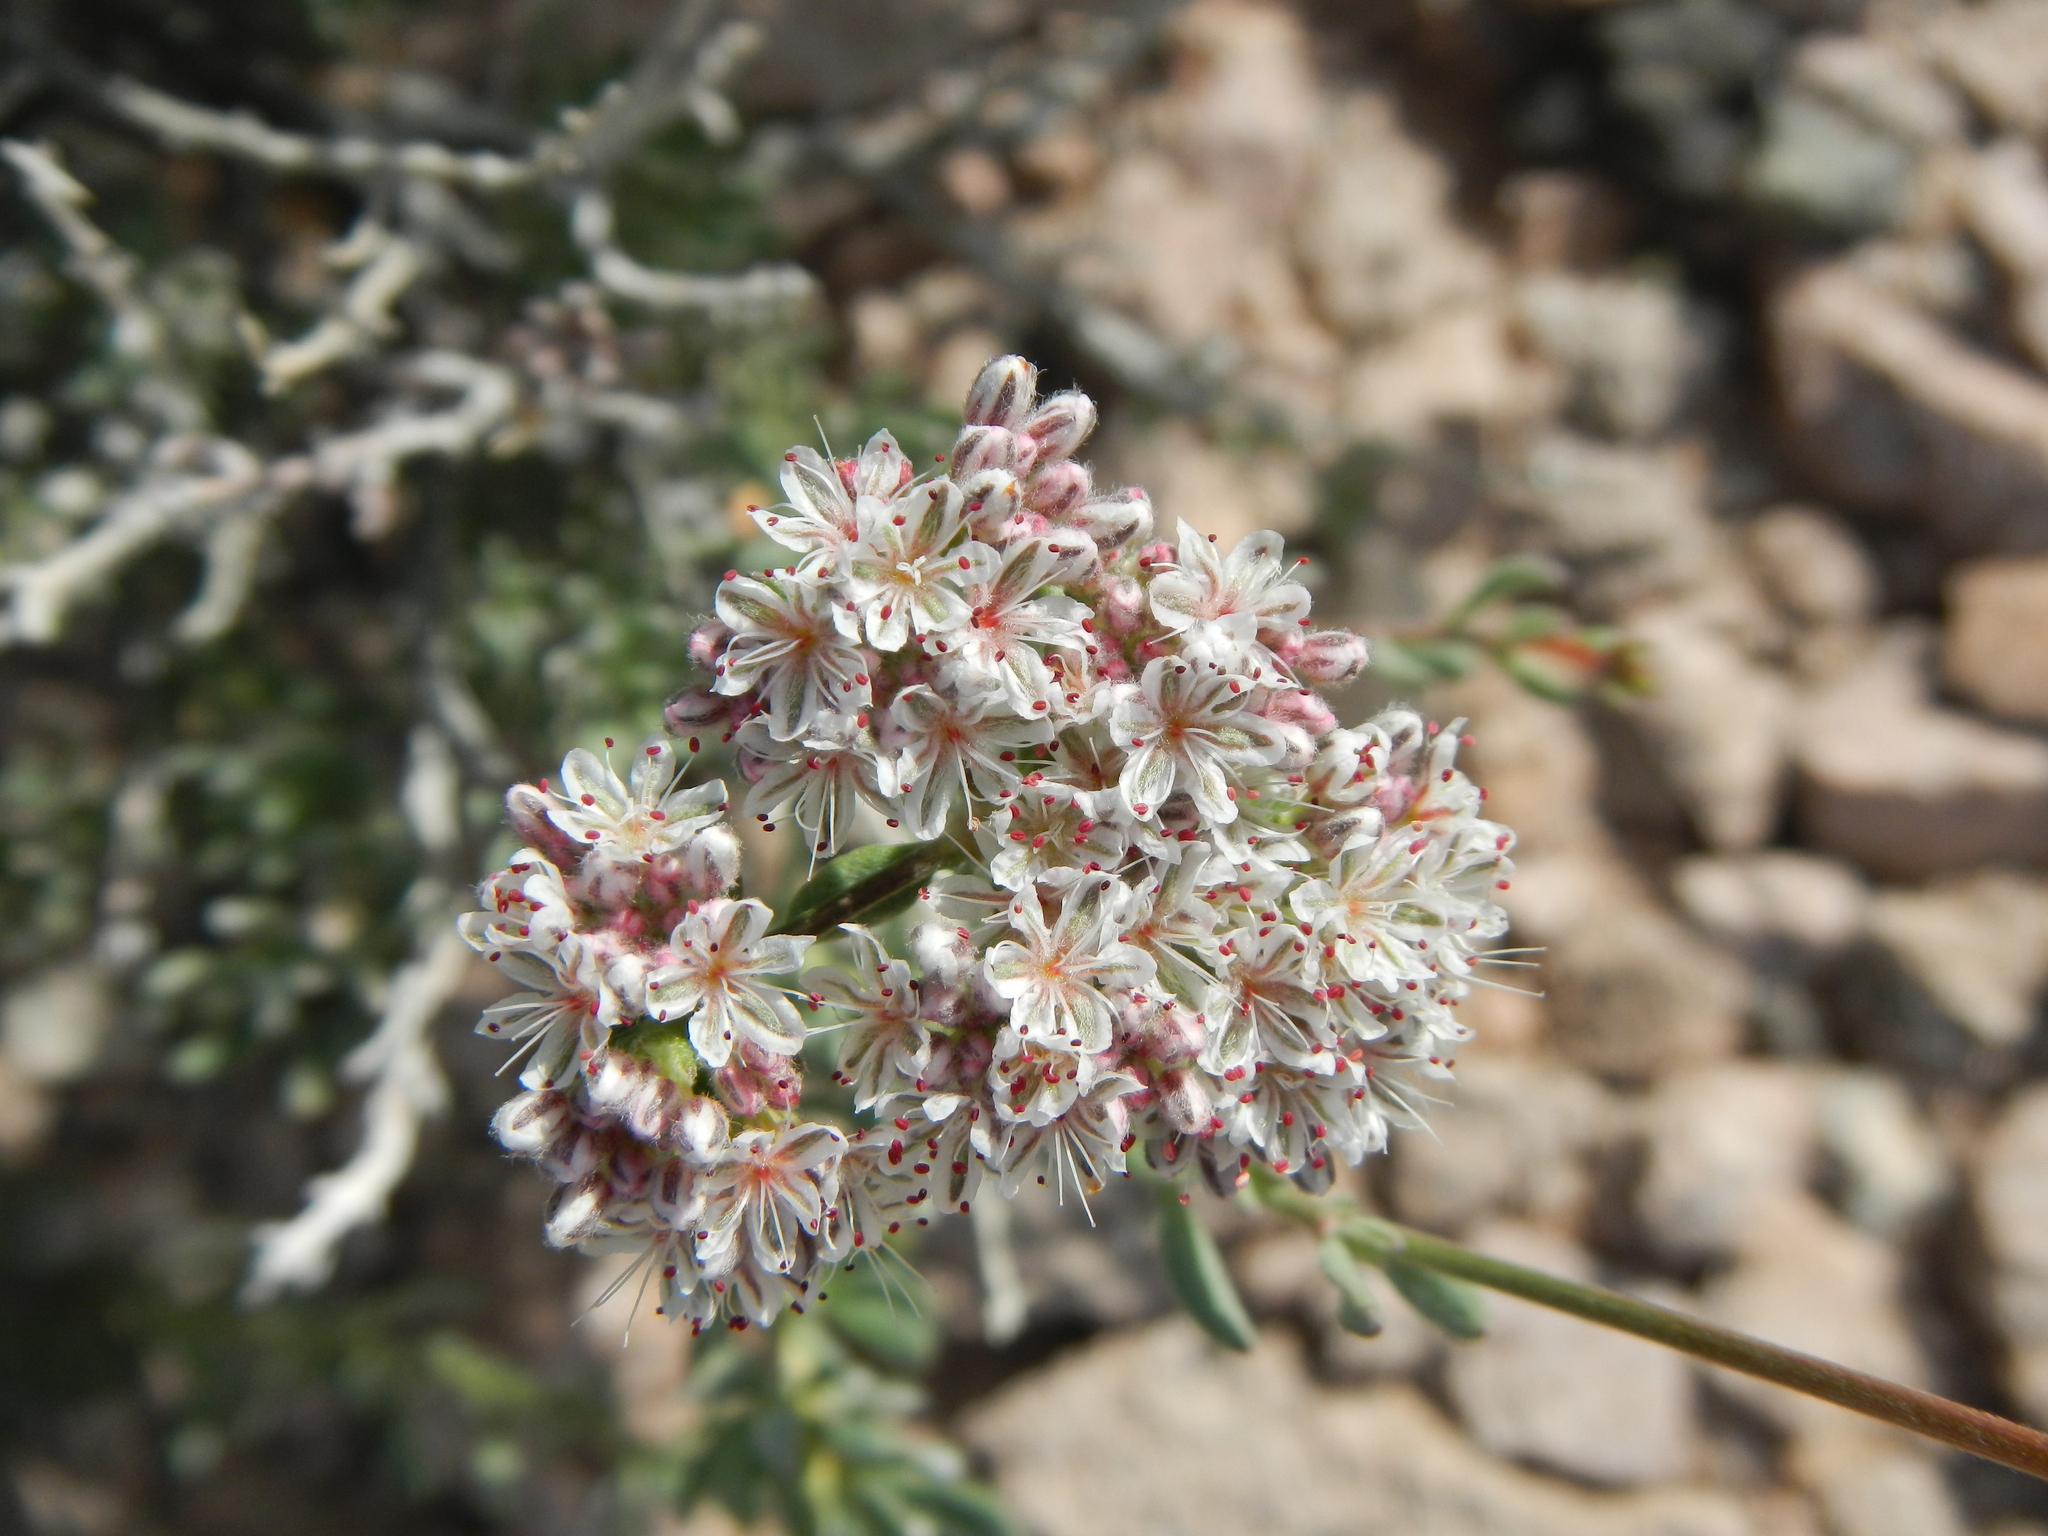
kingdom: Plantae
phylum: Tracheophyta
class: Magnoliopsida
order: Caryophyllales
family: Polygonaceae
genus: Eriogonum
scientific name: Eriogonum fasciculatum
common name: California wild buckwheat
